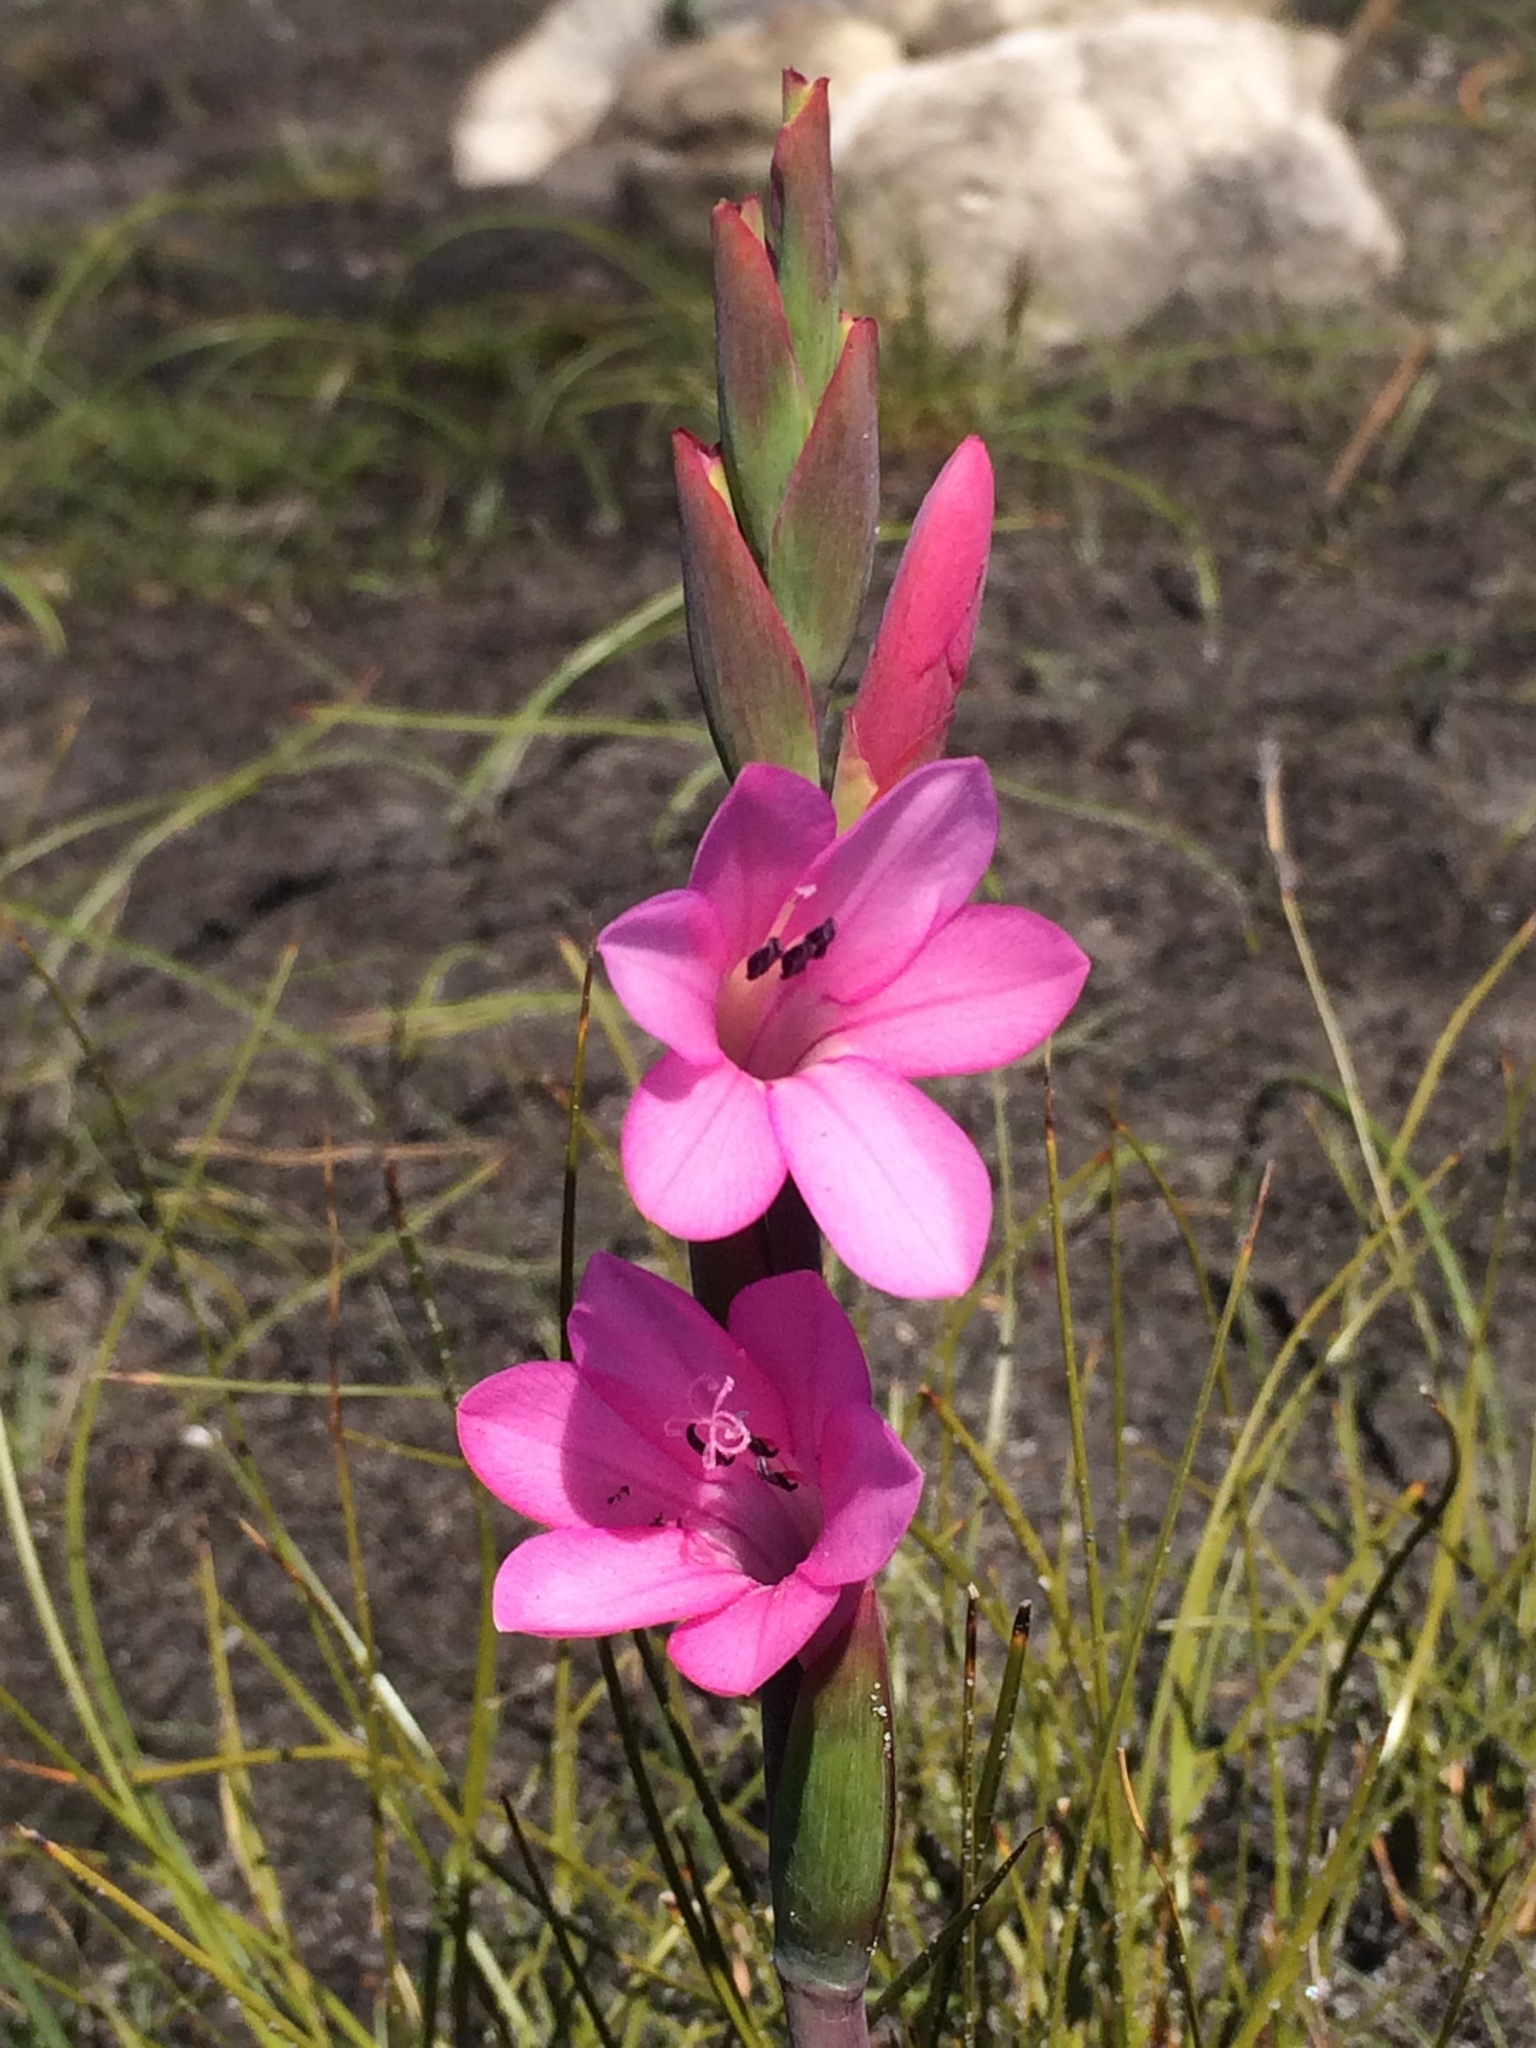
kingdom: Plantae
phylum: Tracheophyta
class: Liliopsida
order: Asparagales
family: Iridaceae
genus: Watsonia
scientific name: Watsonia coccinea
